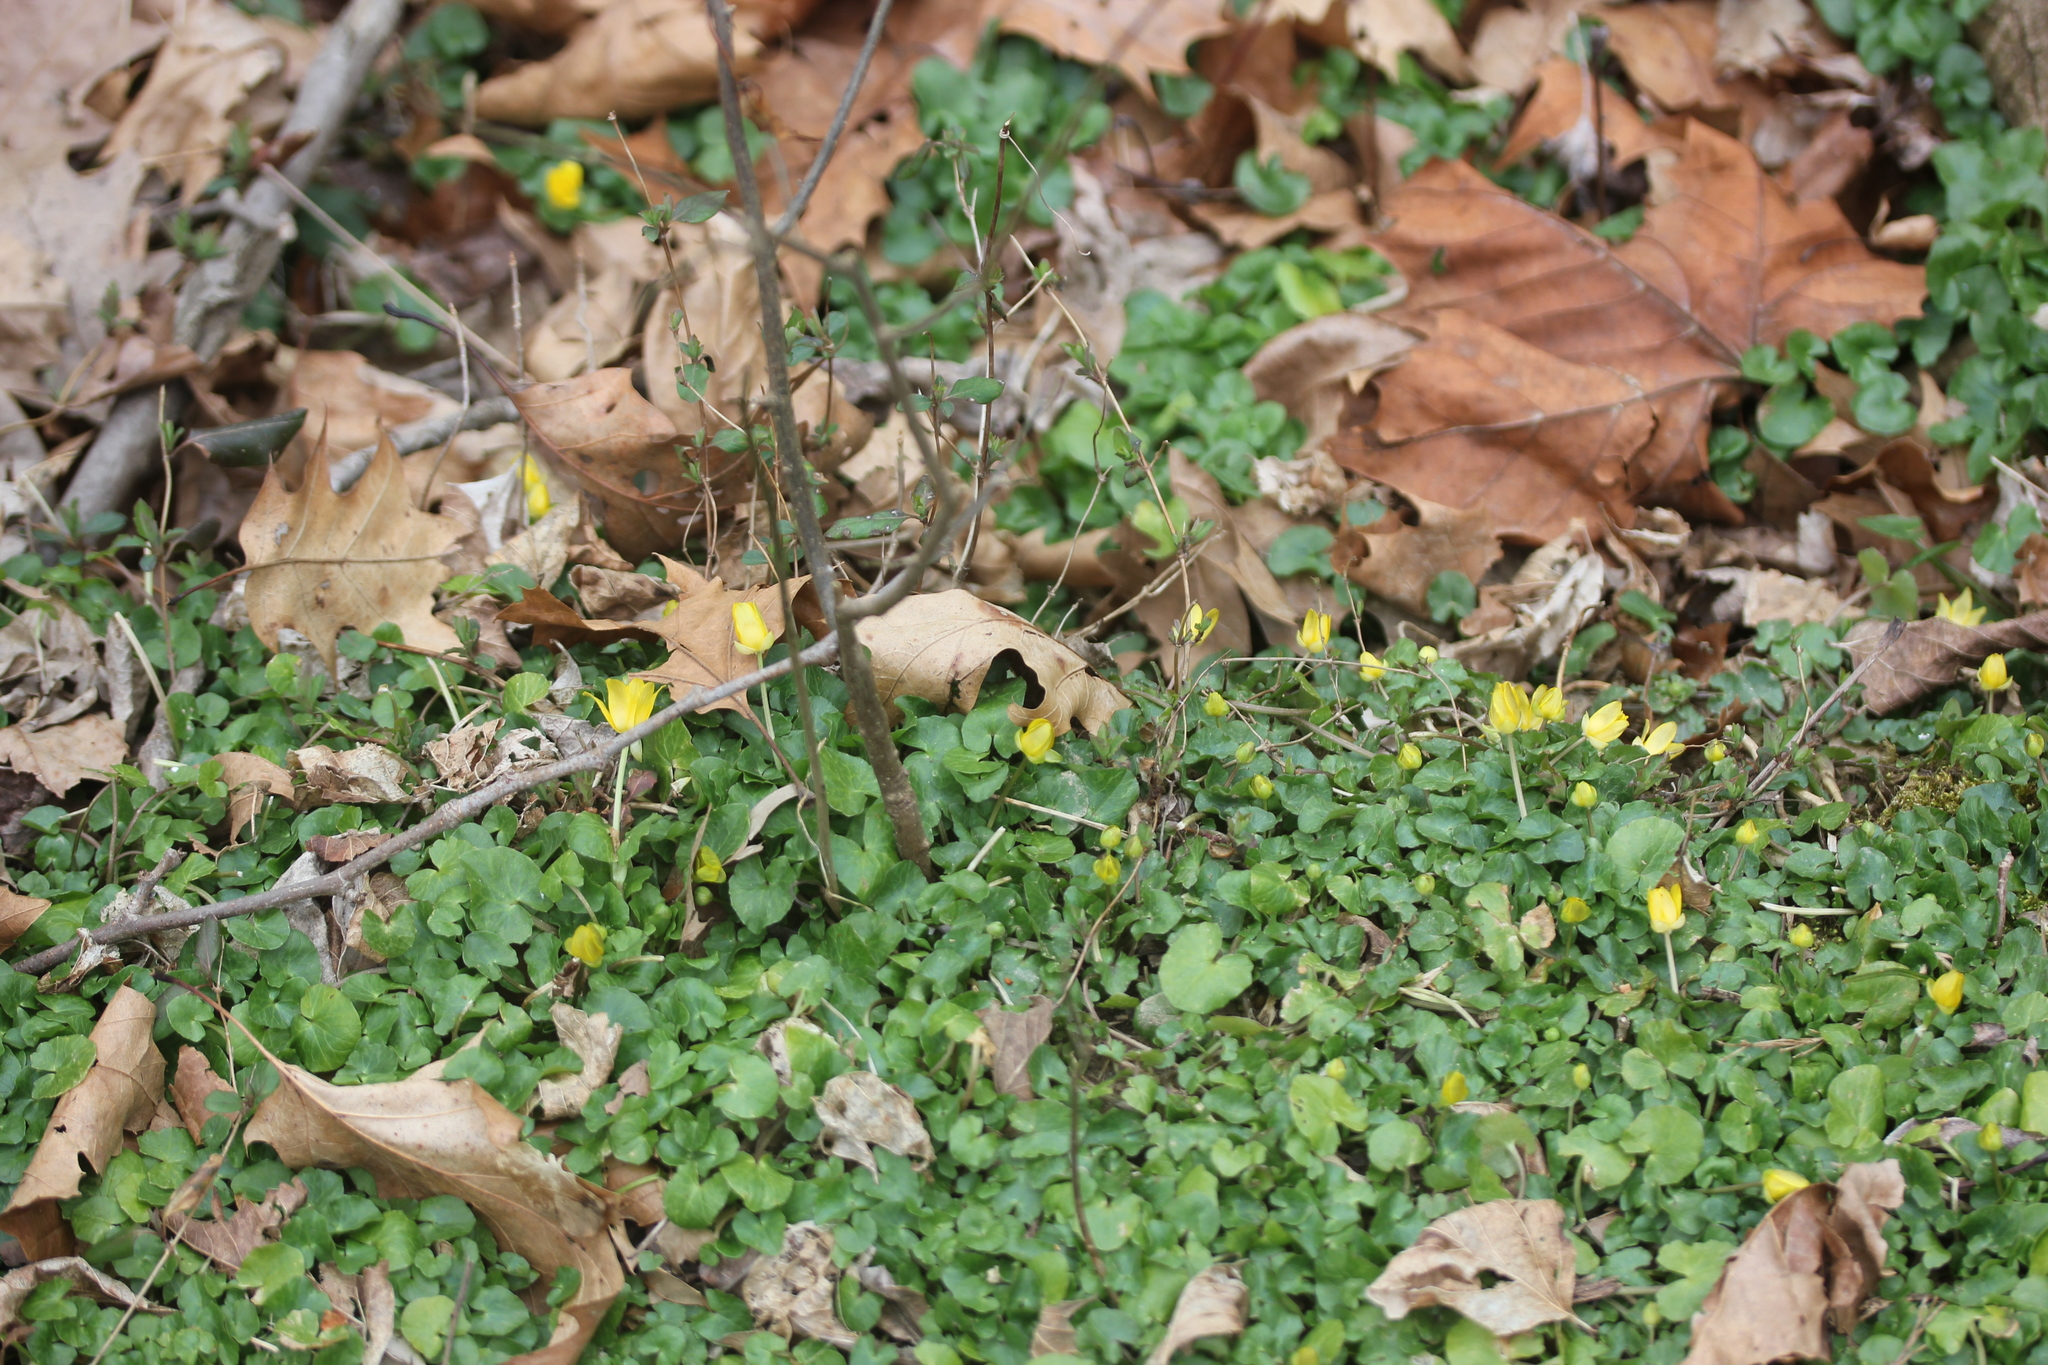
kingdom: Plantae
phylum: Tracheophyta
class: Magnoliopsida
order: Ranunculales
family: Ranunculaceae
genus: Ficaria
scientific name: Ficaria verna
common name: Lesser celandine
